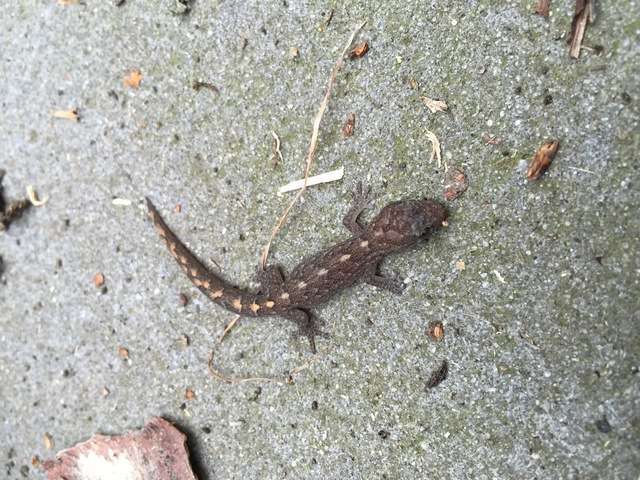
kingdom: Animalia
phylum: Chordata
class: Squamata
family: Gekkonidae
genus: Christinus
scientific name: Christinus marmoratus
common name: Marbled gecko
